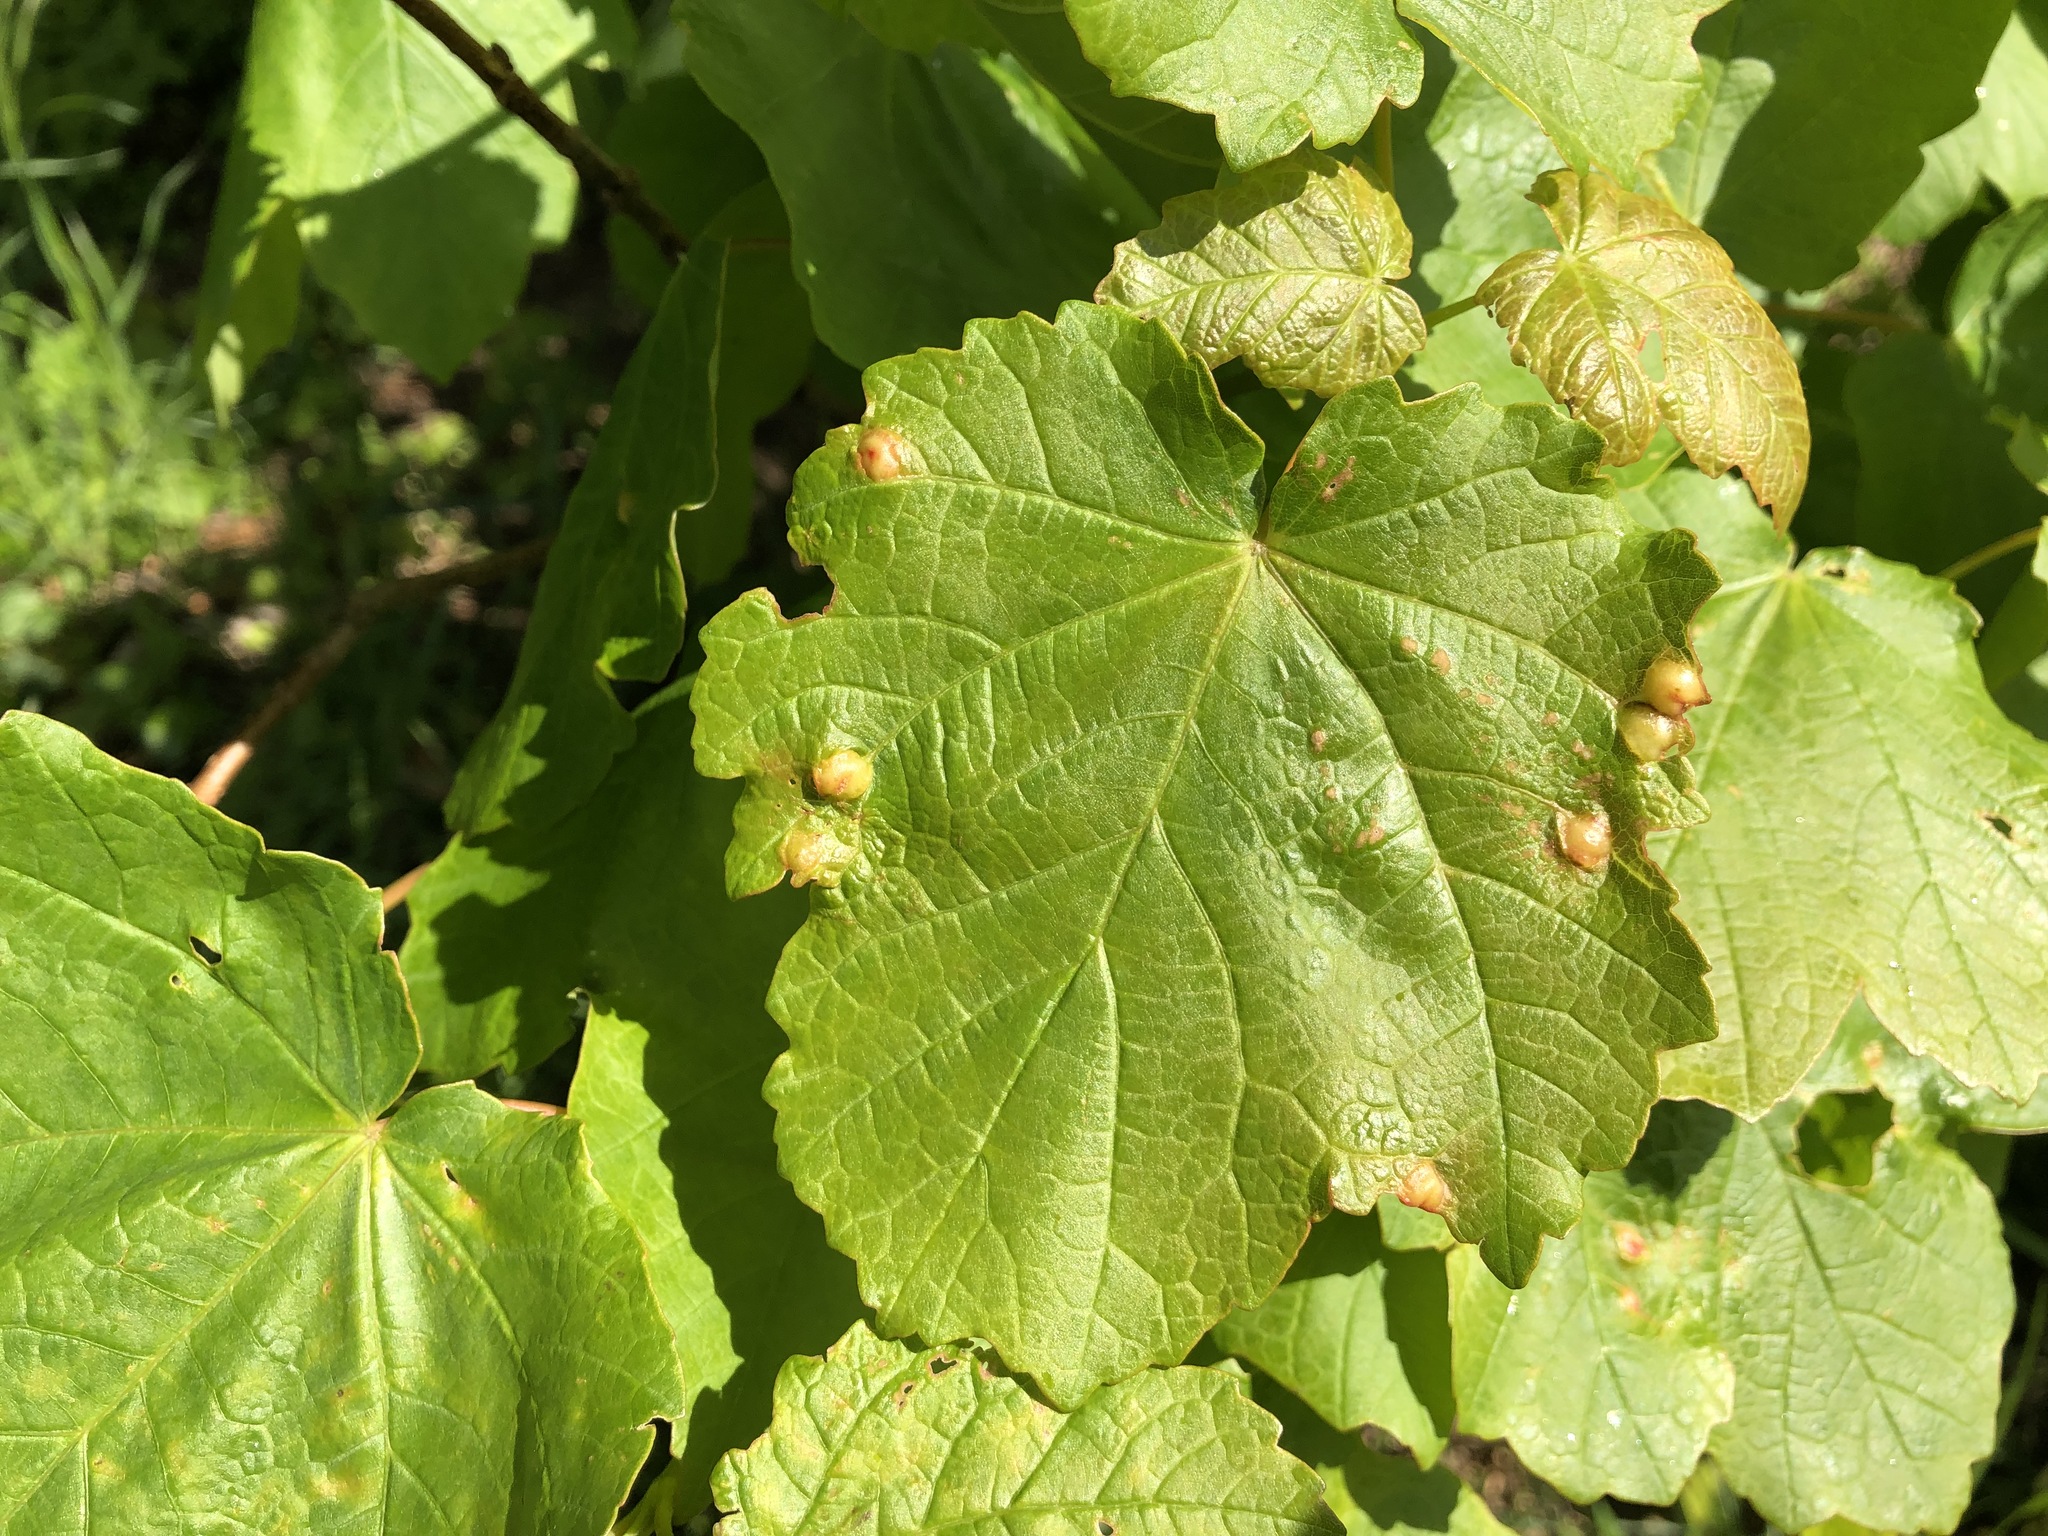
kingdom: Animalia
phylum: Arthropoda
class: Insecta
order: Hymenoptera
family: Cynipidae
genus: Pediaspis
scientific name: Pediaspis aceris
